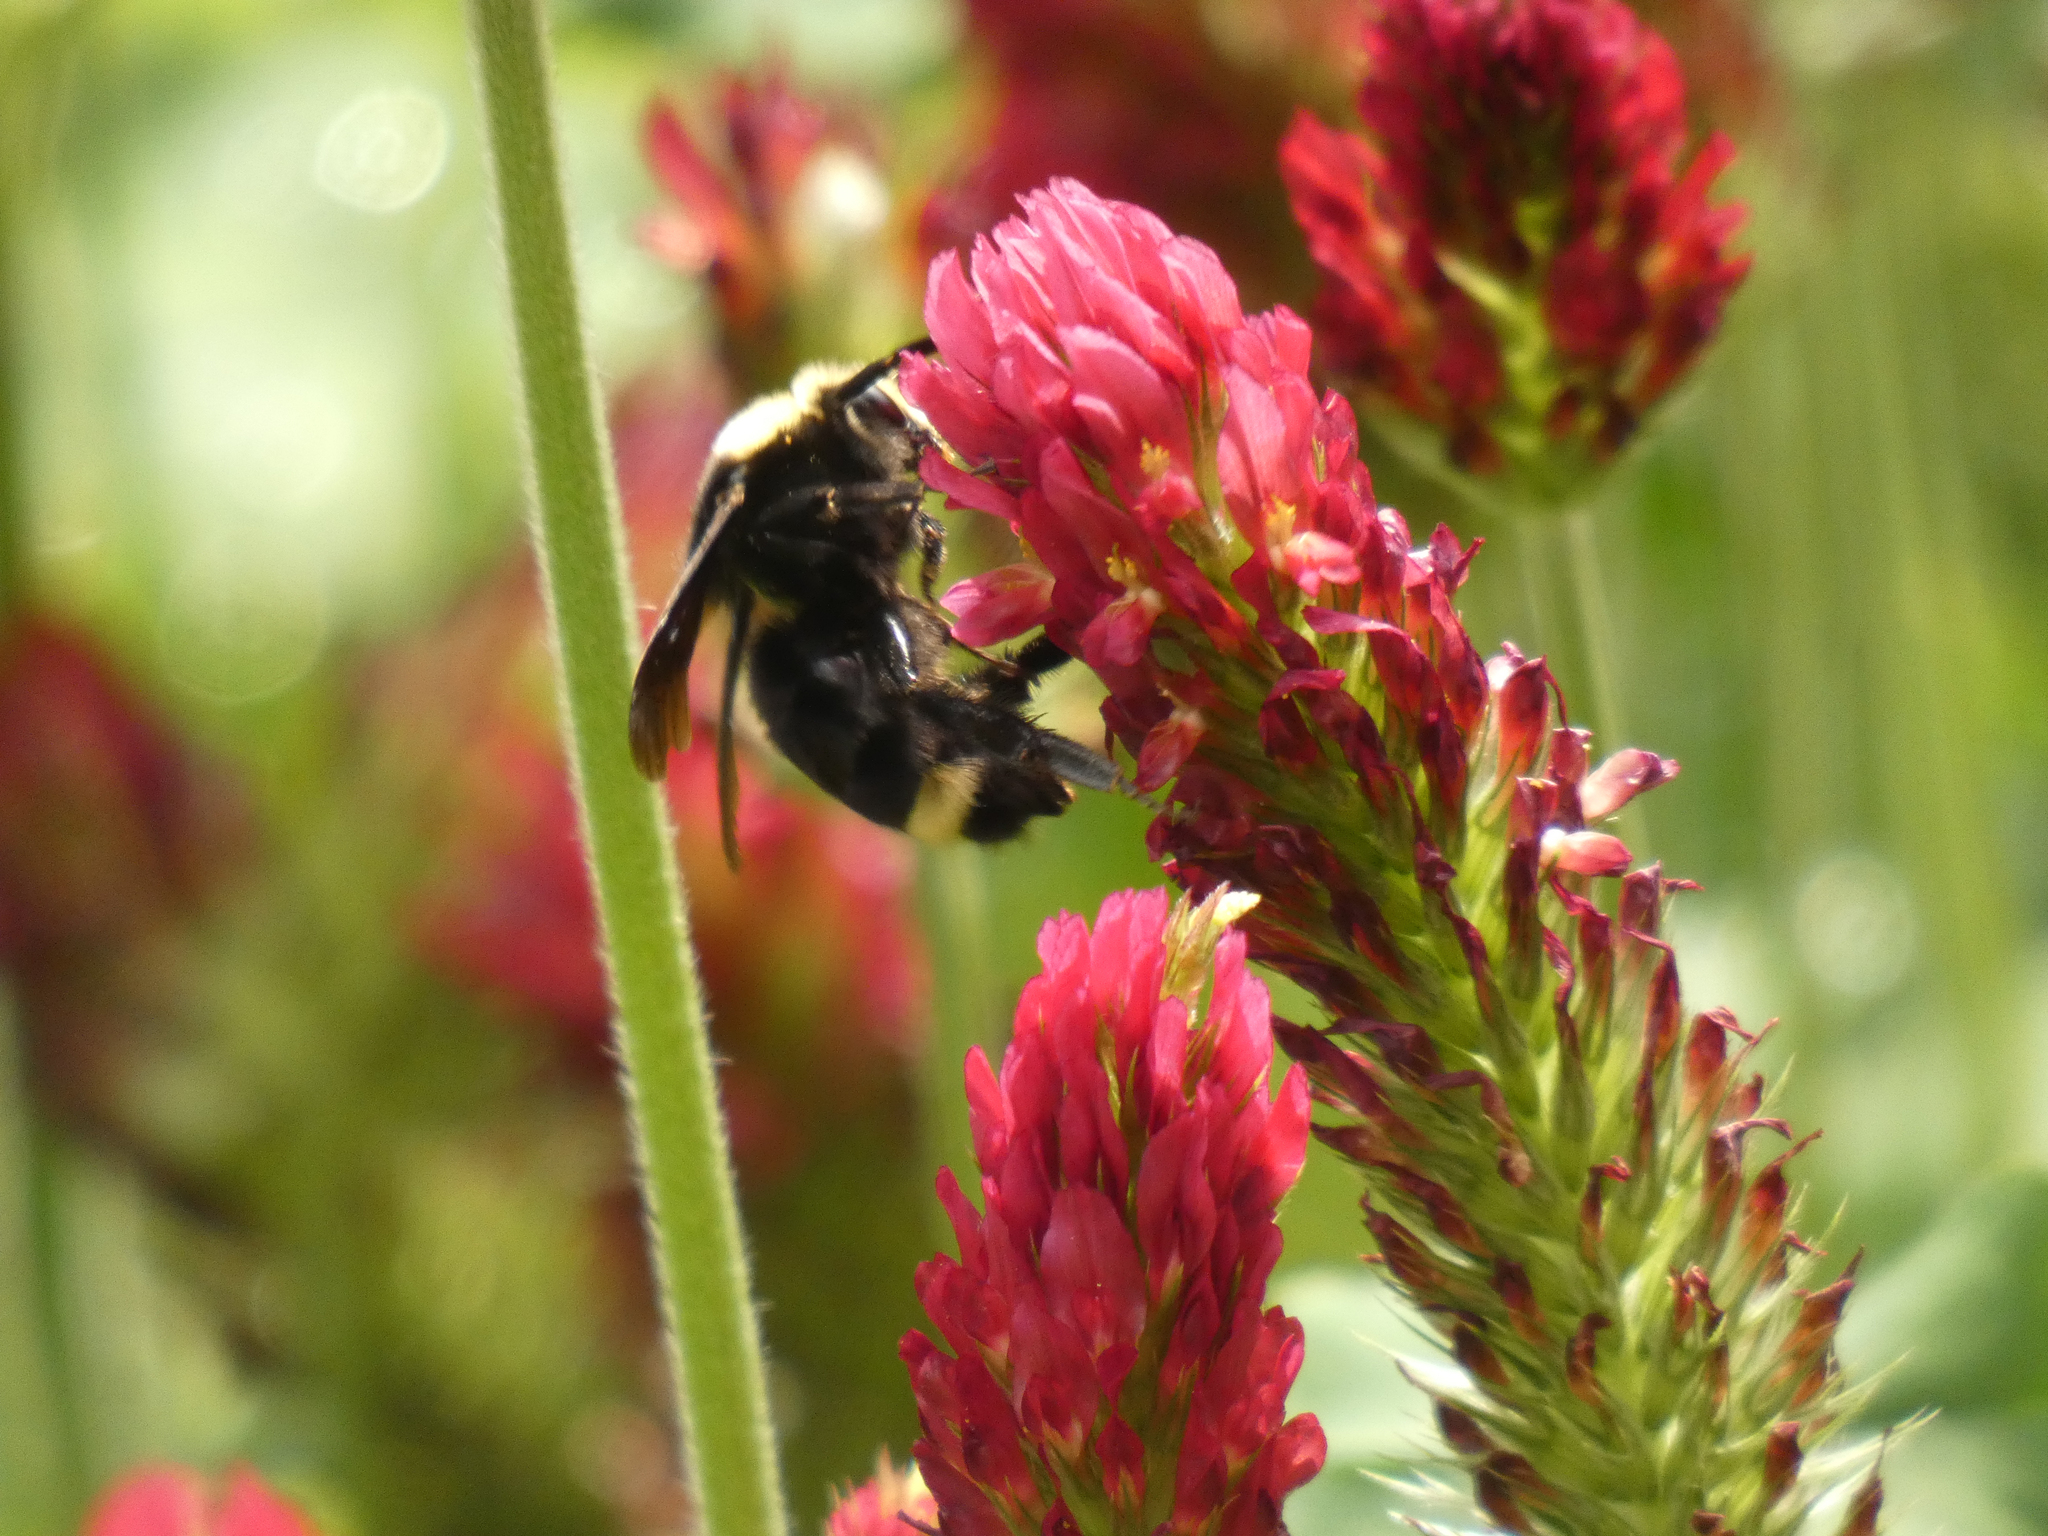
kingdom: Animalia
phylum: Arthropoda
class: Insecta
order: Hymenoptera
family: Apidae
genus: Bombus
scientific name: Bombus vosnesenskii
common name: Vosnesensky bumble bee
